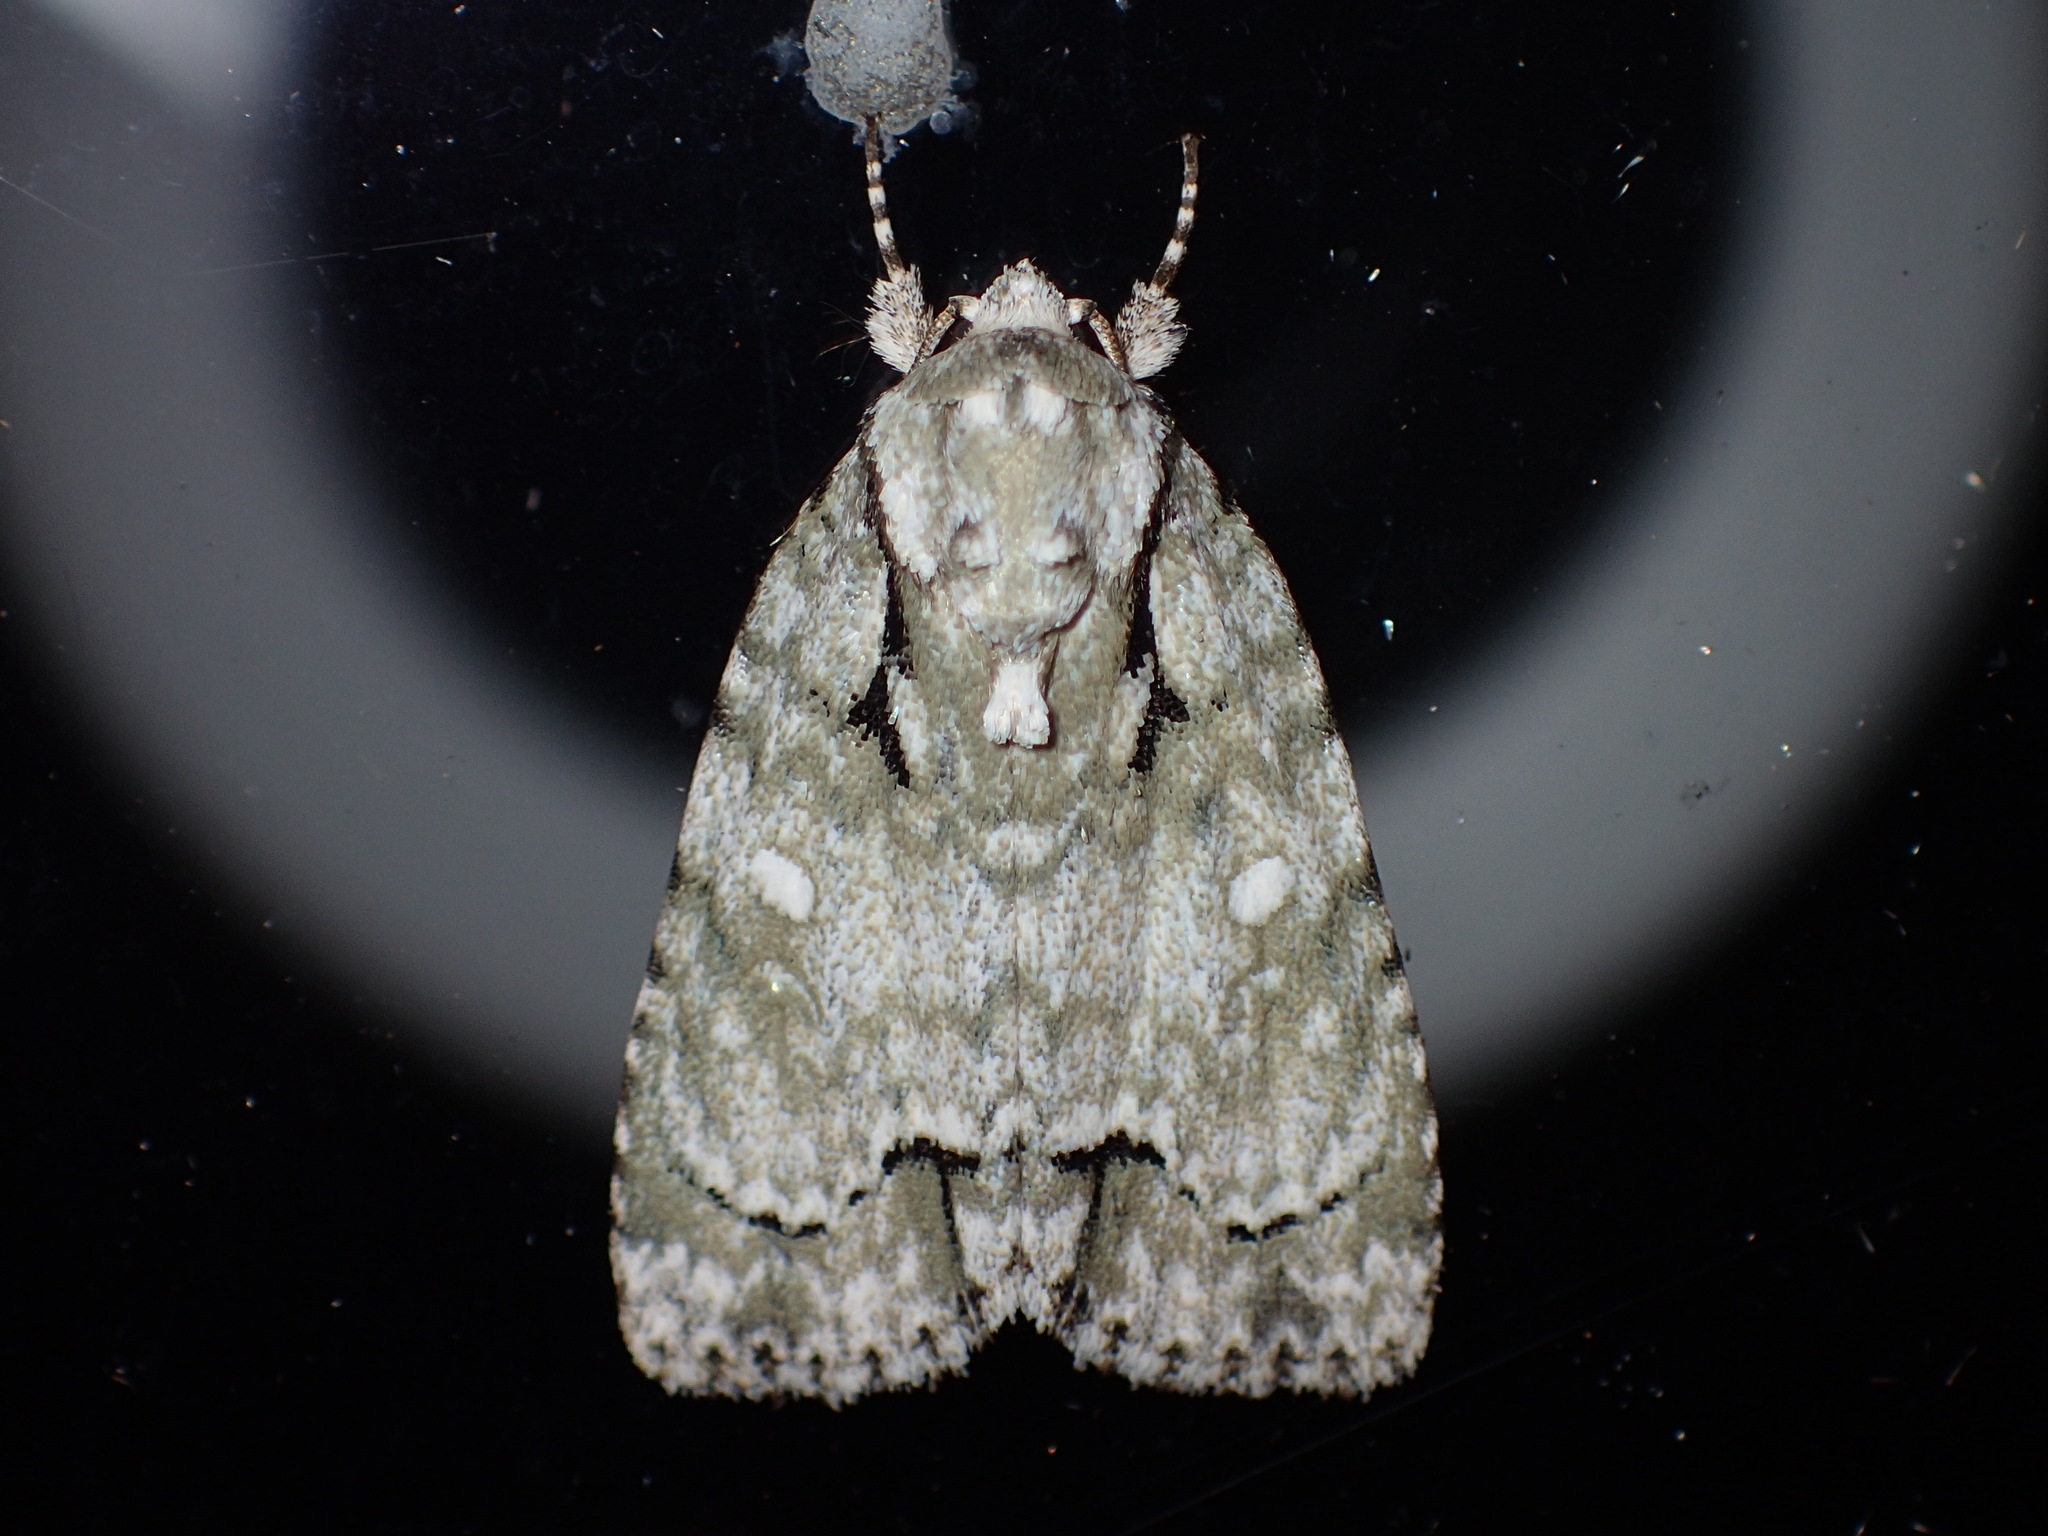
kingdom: Animalia
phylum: Arthropoda
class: Insecta
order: Lepidoptera
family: Noctuidae
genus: Acronicta
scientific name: Acronicta vinnula
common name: Delightful dagger
